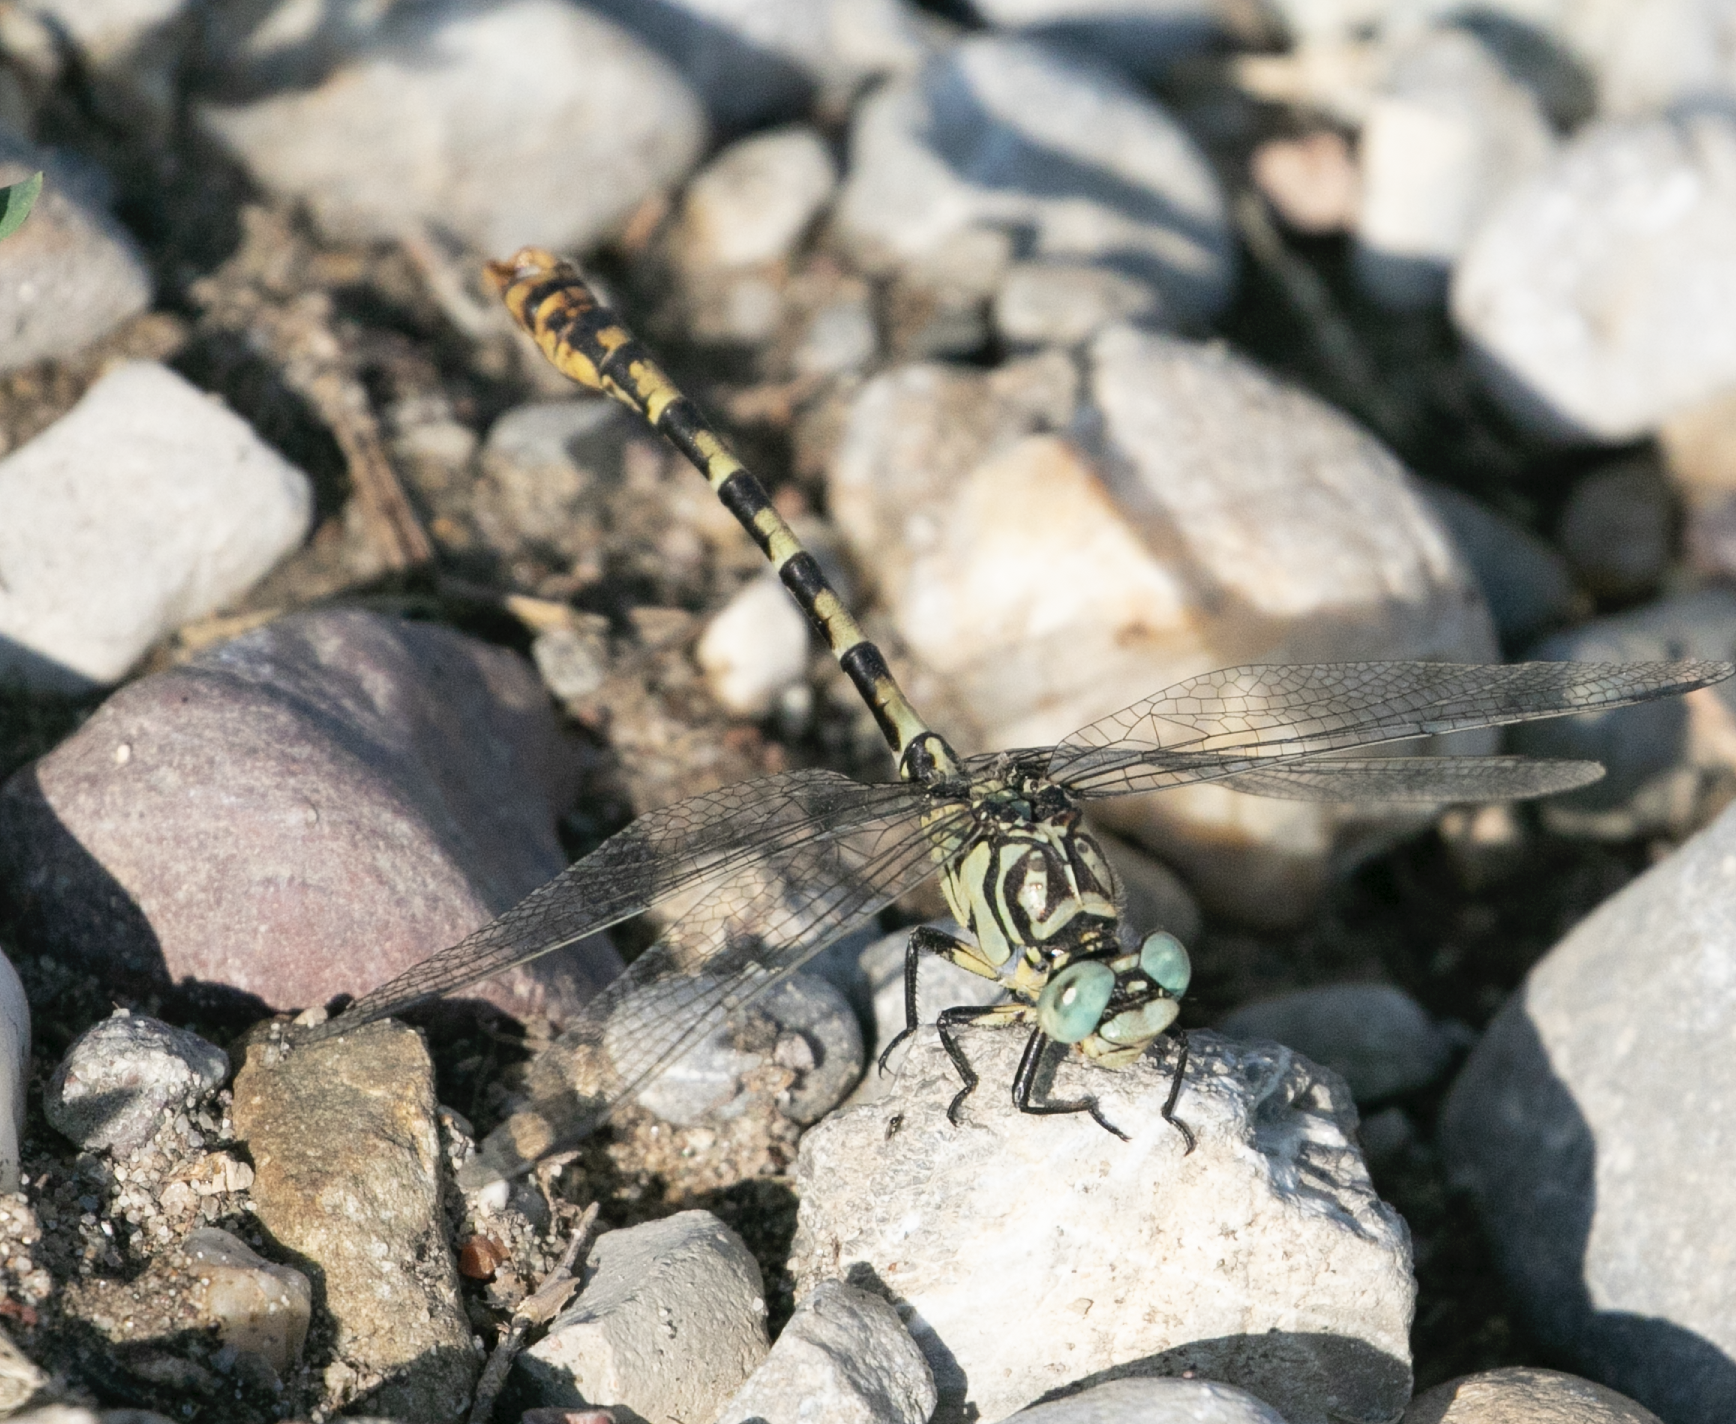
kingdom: Animalia
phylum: Arthropoda
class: Insecta
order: Odonata
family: Gomphidae
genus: Onychogomphus
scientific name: Onychogomphus forcipatus
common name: Small pincertail
